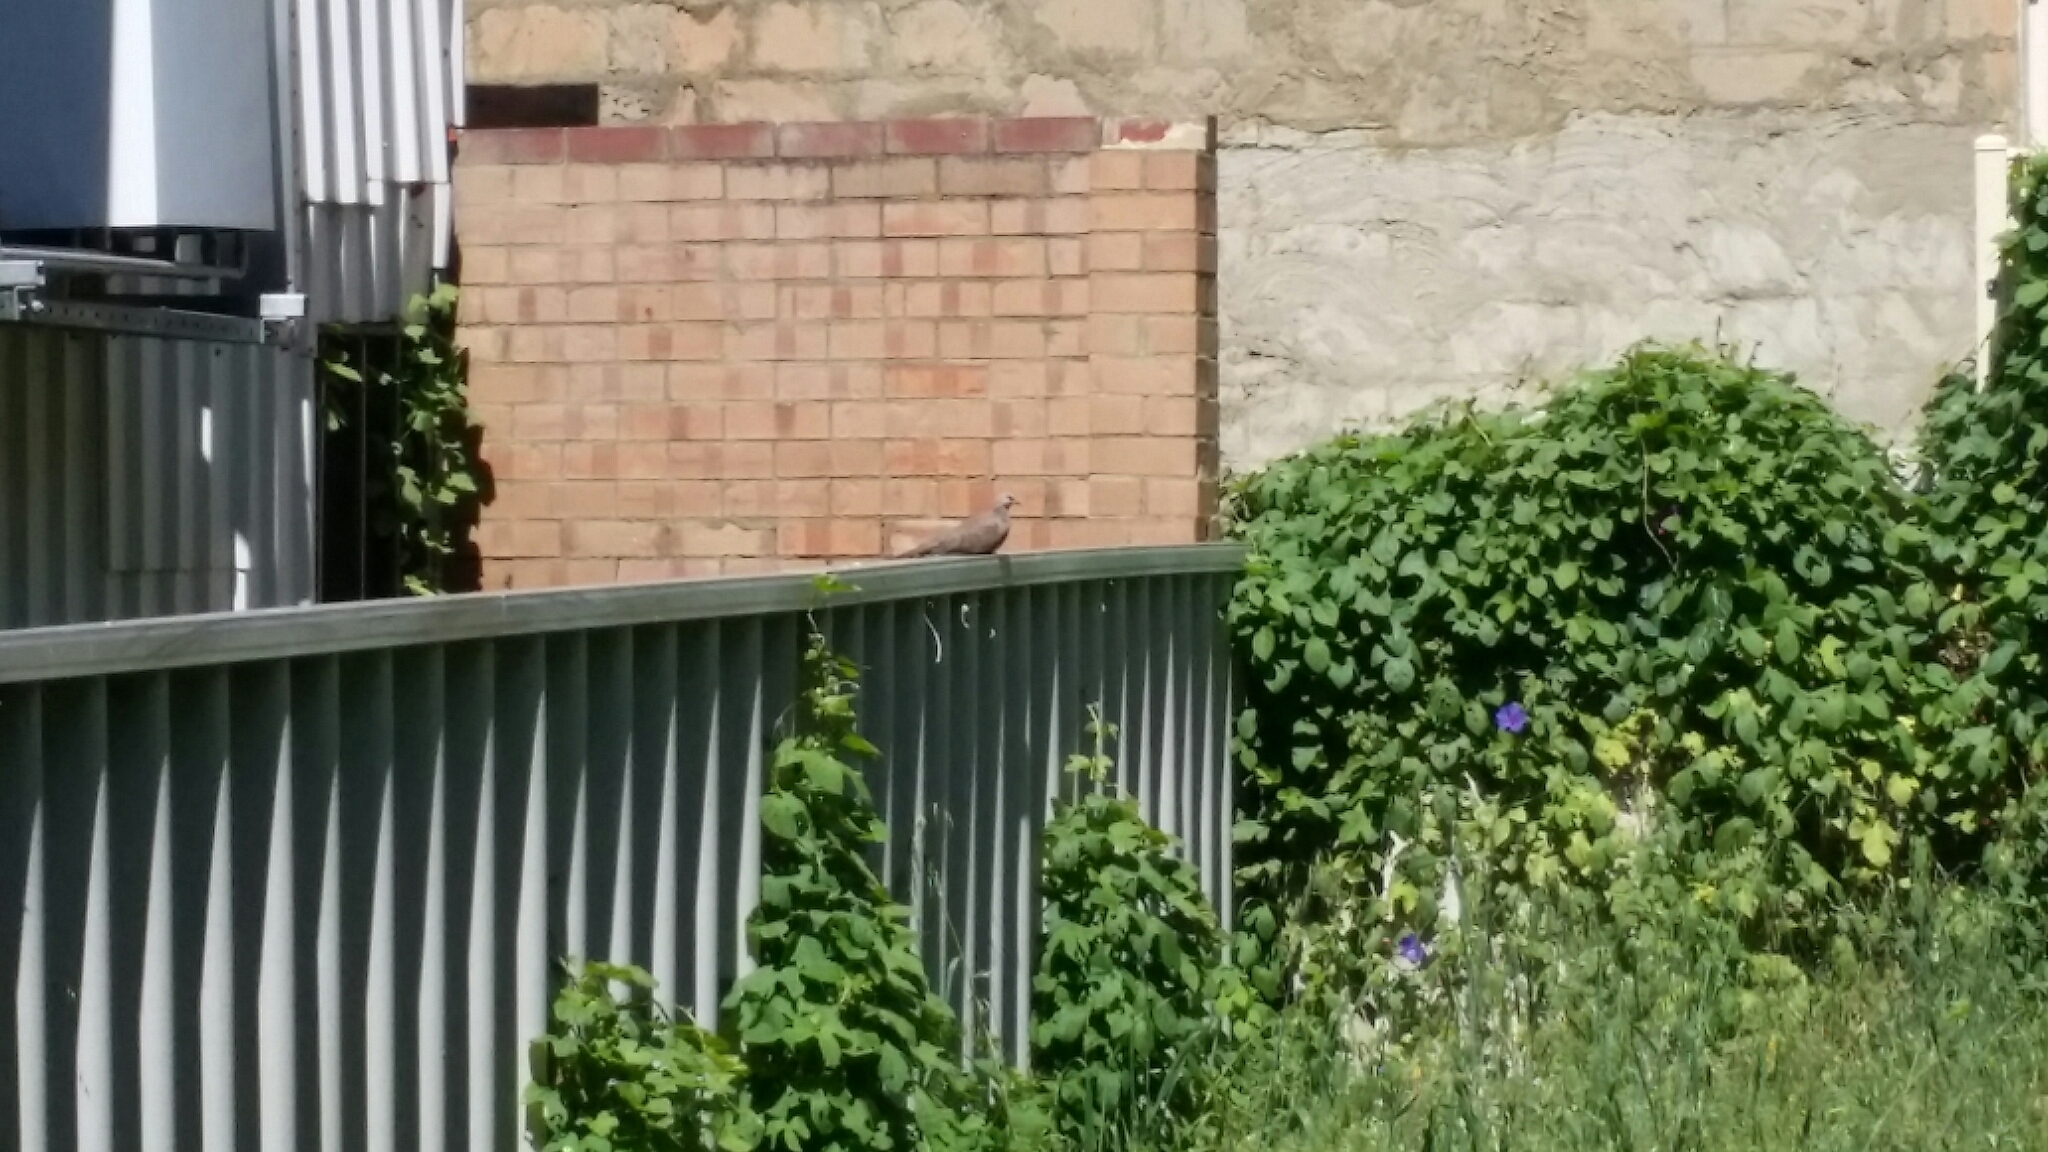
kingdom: Animalia
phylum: Chordata
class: Aves
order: Columbiformes
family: Columbidae
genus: Spilopelia
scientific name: Spilopelia senegalensis
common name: Laughing dove
